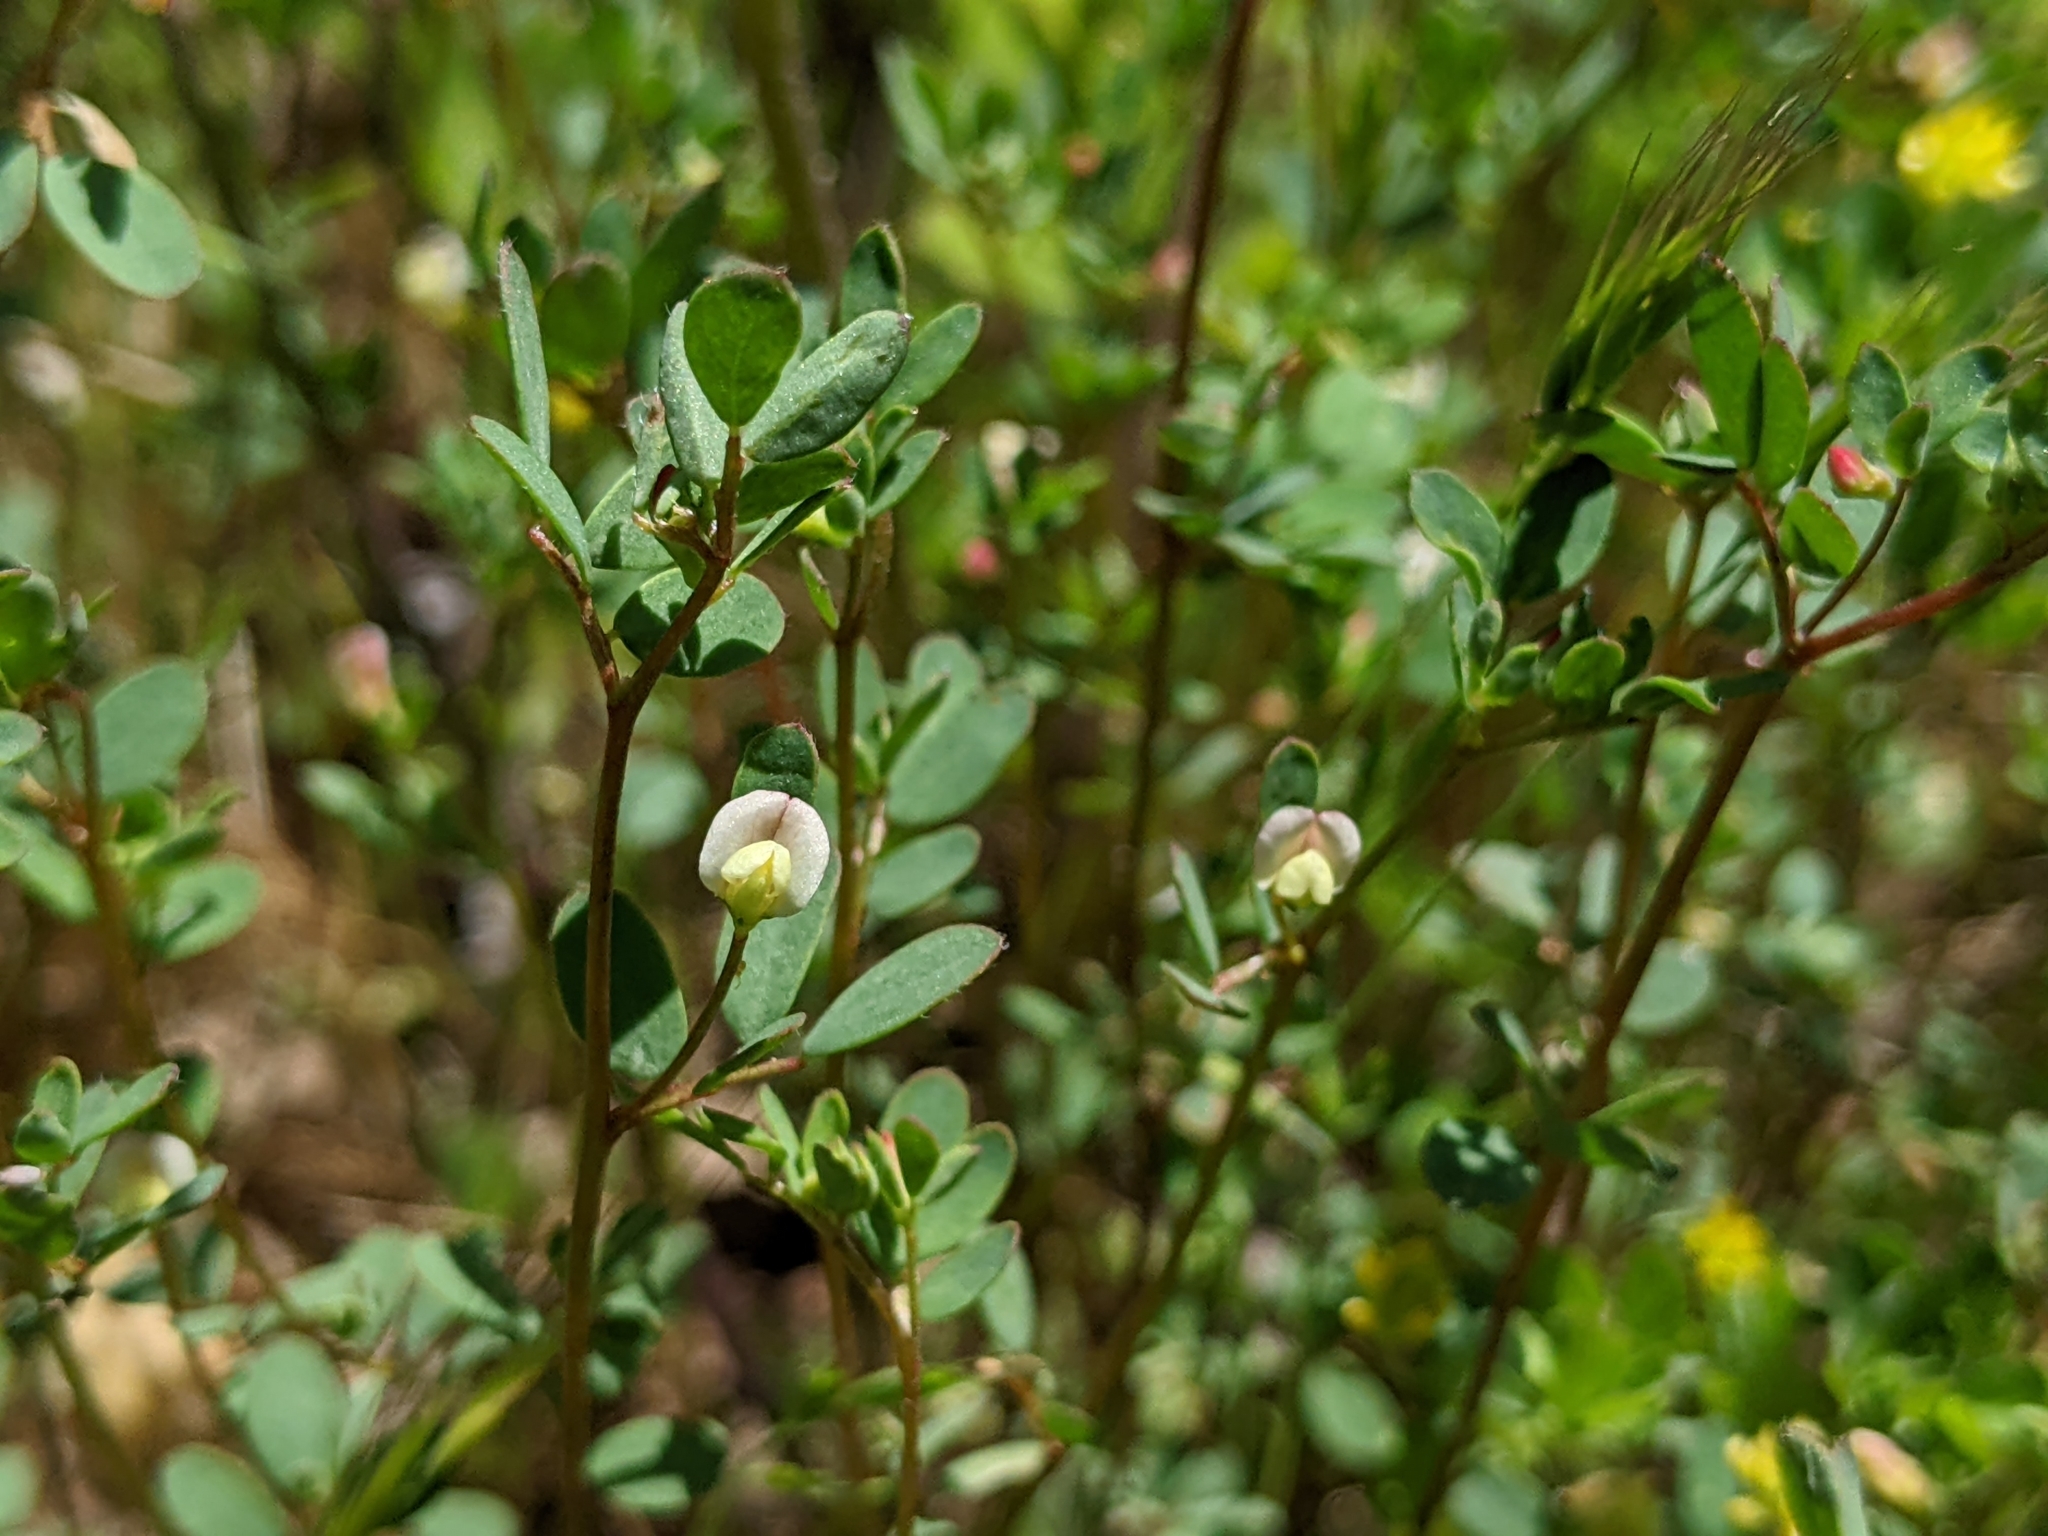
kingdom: Plantae
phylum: Tracheophyta
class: Magnoliopsida
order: Fabales
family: Fabaceae
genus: Acmispon
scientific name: Acmispon parviflorus
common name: Desert deer-vetch
